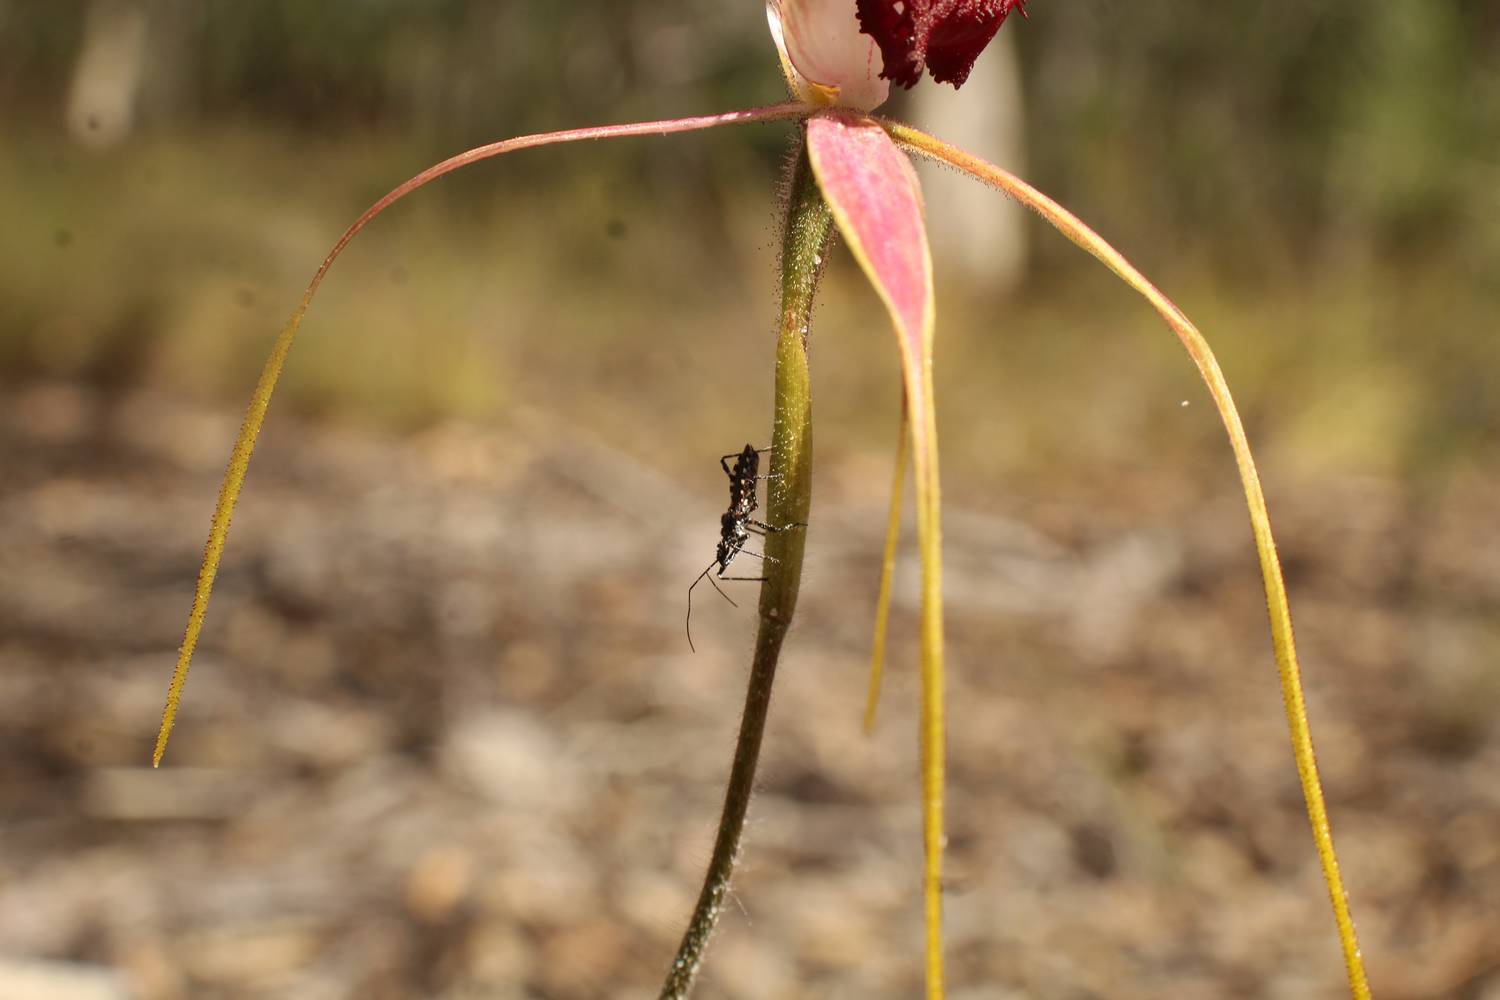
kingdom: Animalia
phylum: Arthropoda
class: Insecta
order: Hemiptera
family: Reduviidae
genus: Trachylestes
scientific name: Trachylestes turneri
